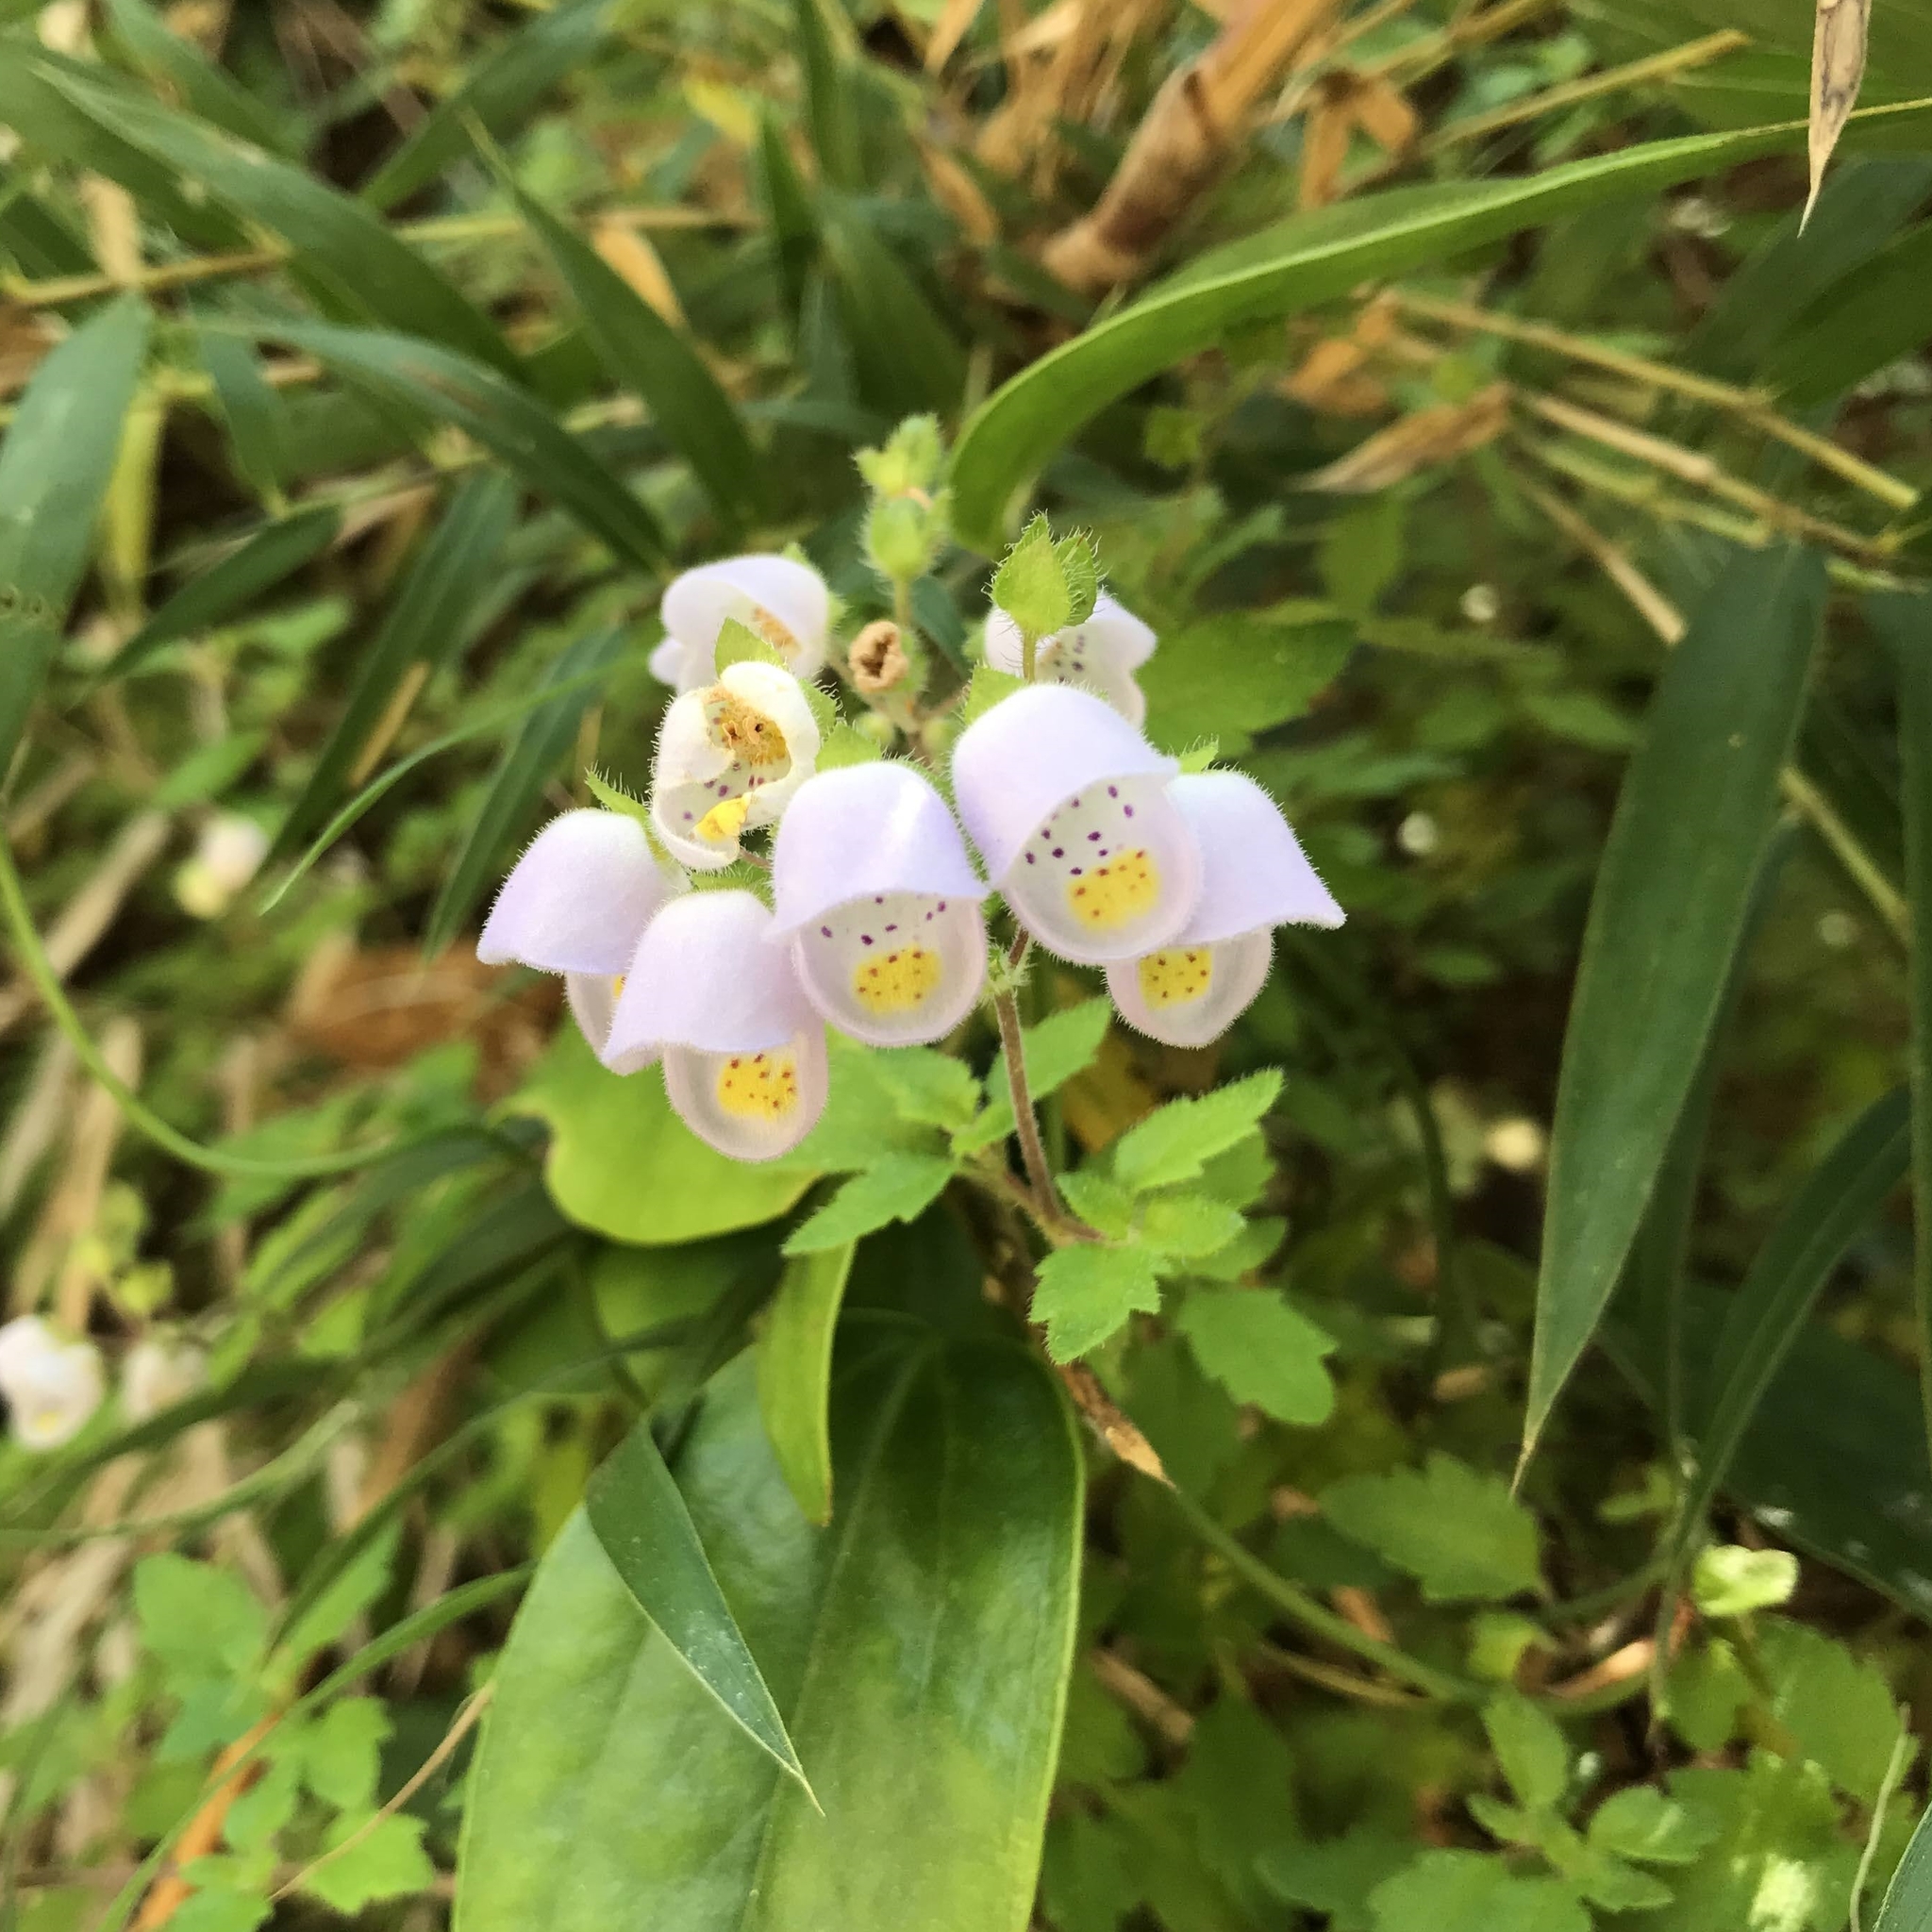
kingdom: Plantae
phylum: Tracheophyta
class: Magnoliopsida
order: Lamiales
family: Calceolariaceae
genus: Jovellana
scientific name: Jovellana violacea
